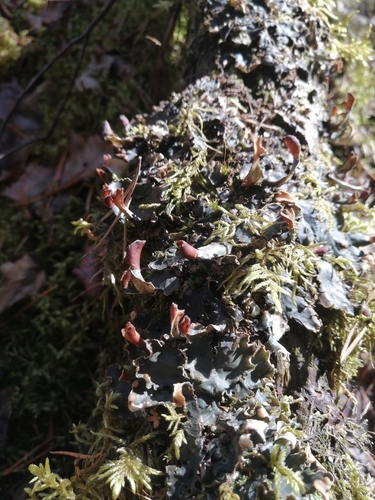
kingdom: Fungi
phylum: Ascomycota
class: Lecanoromycetes
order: Peltigerales
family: Peltigeraceae
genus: Peltigera
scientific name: Peltigera polydactylon
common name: Many-fruited pelt lichen
